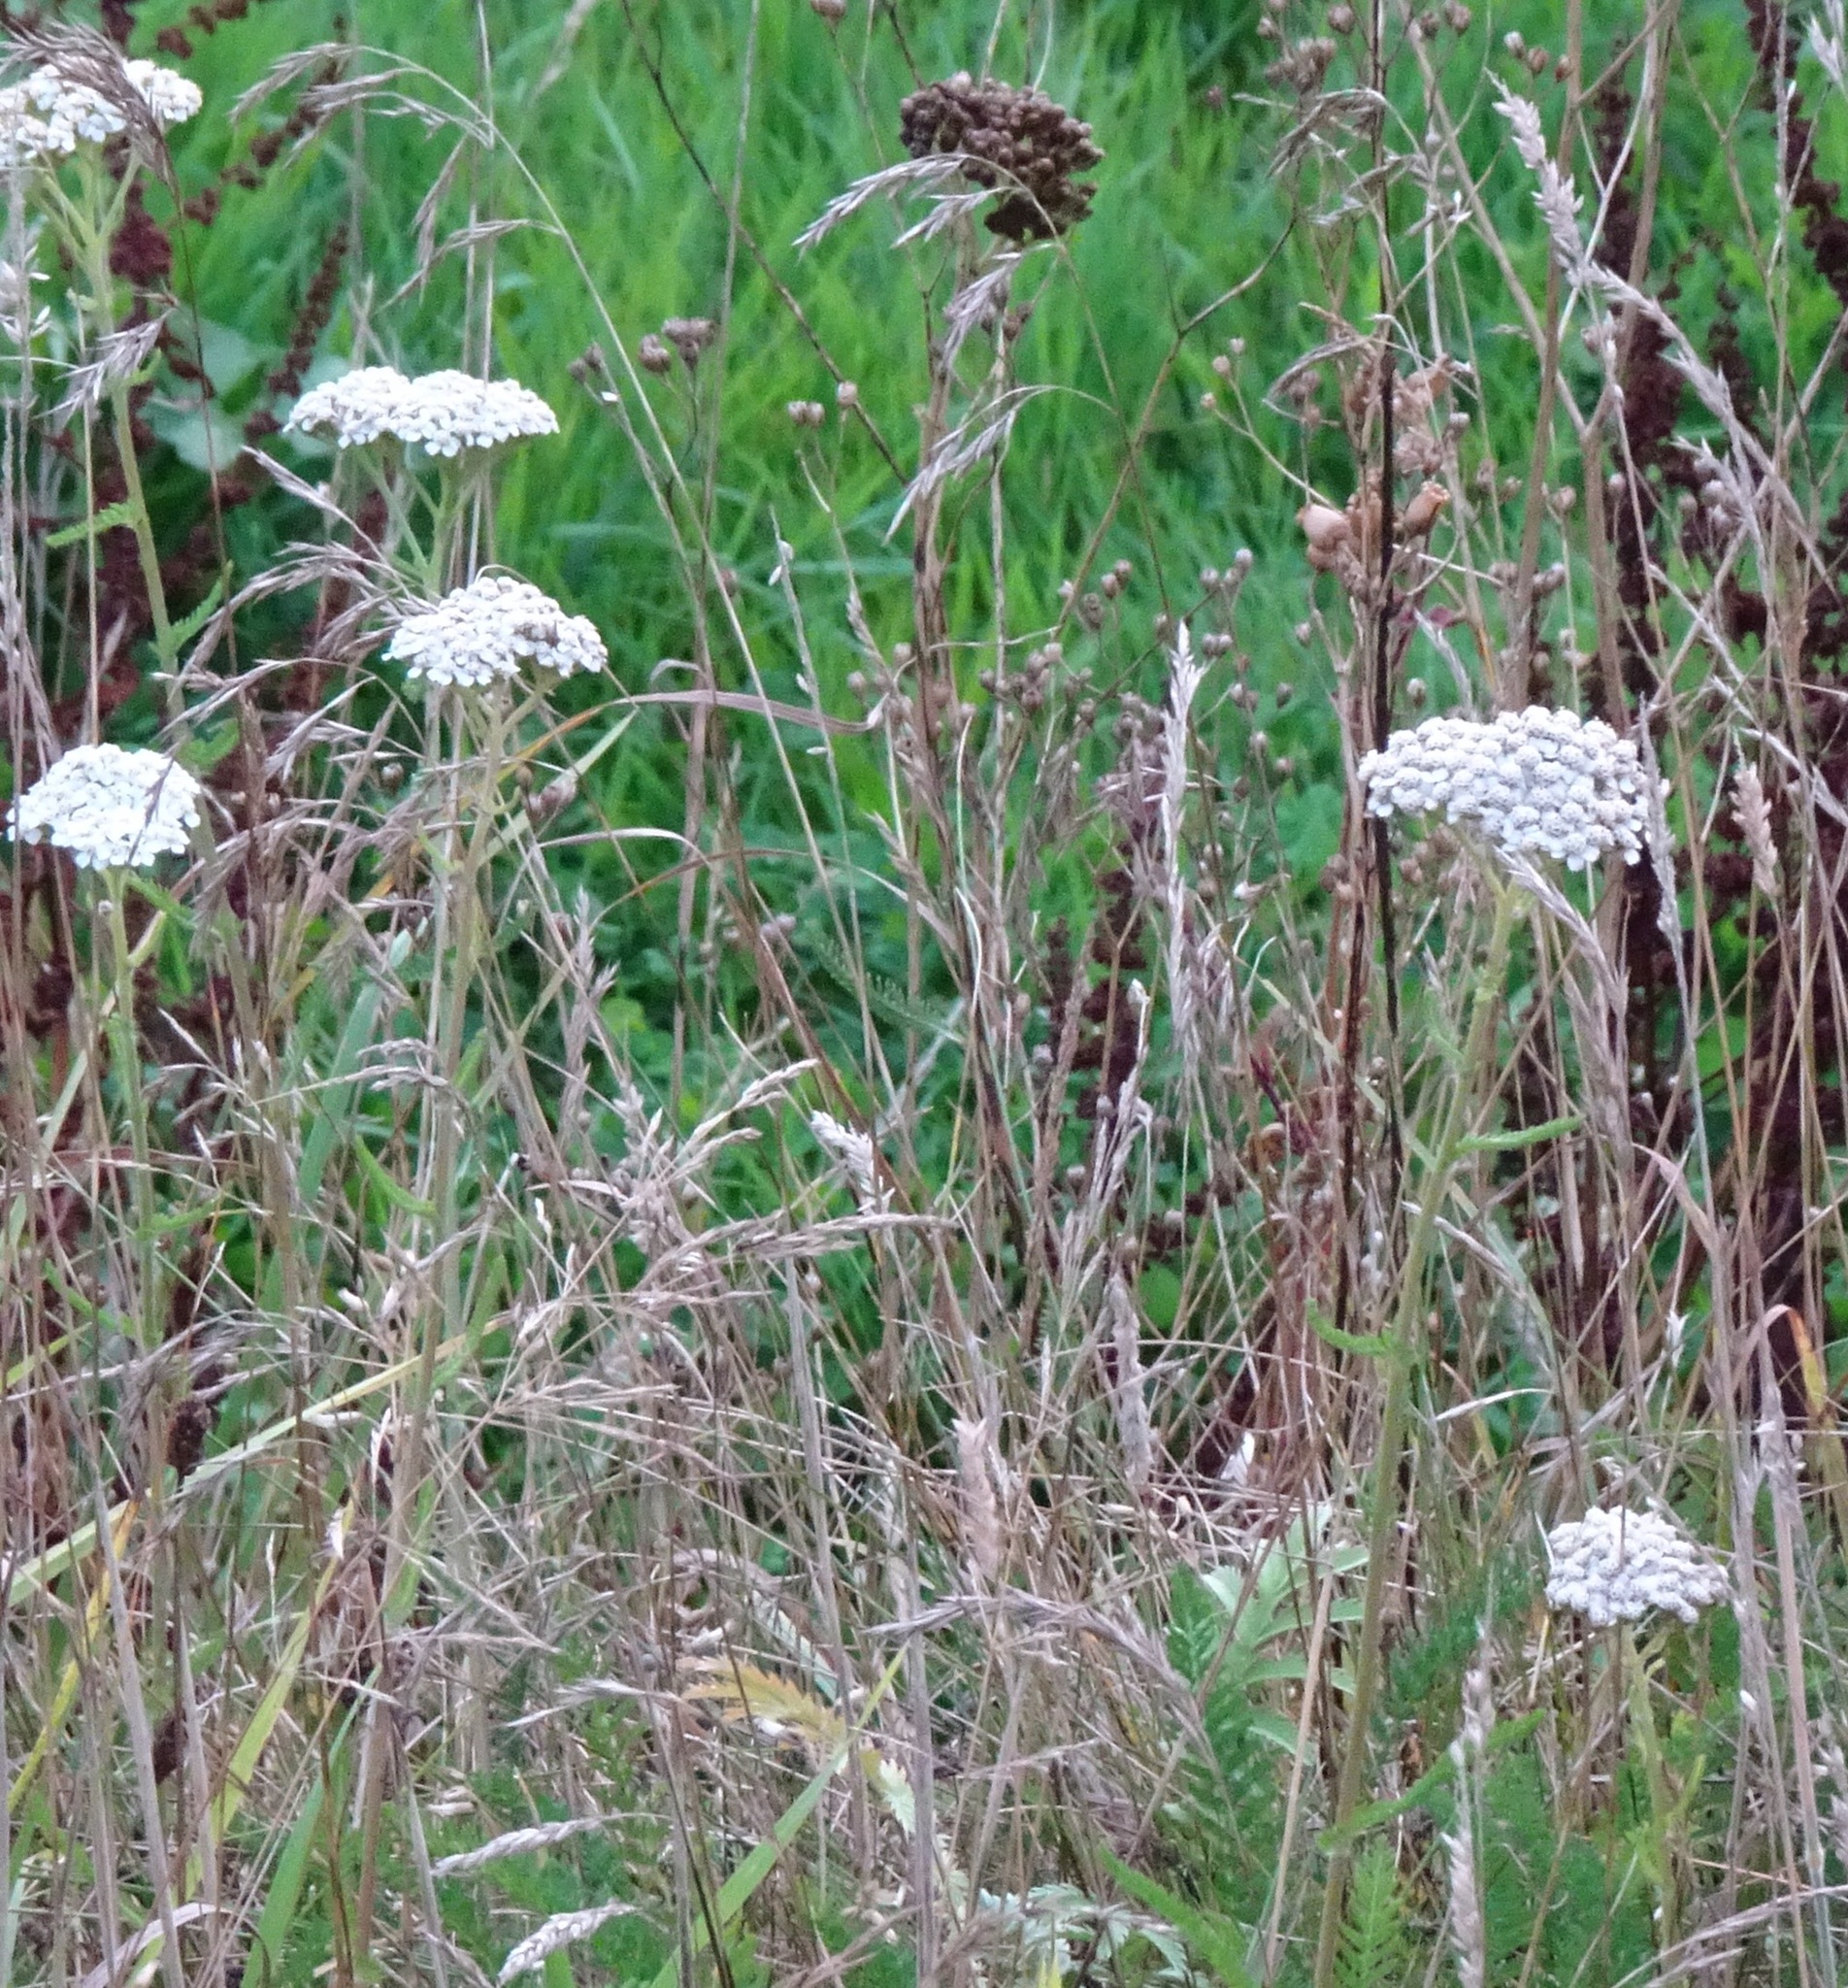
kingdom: Plantae
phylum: Tracheophyta
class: Magnoliopsida
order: Asterales
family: Asteraceae
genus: Achillea
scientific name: Achillea millefolium
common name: Yarrow
